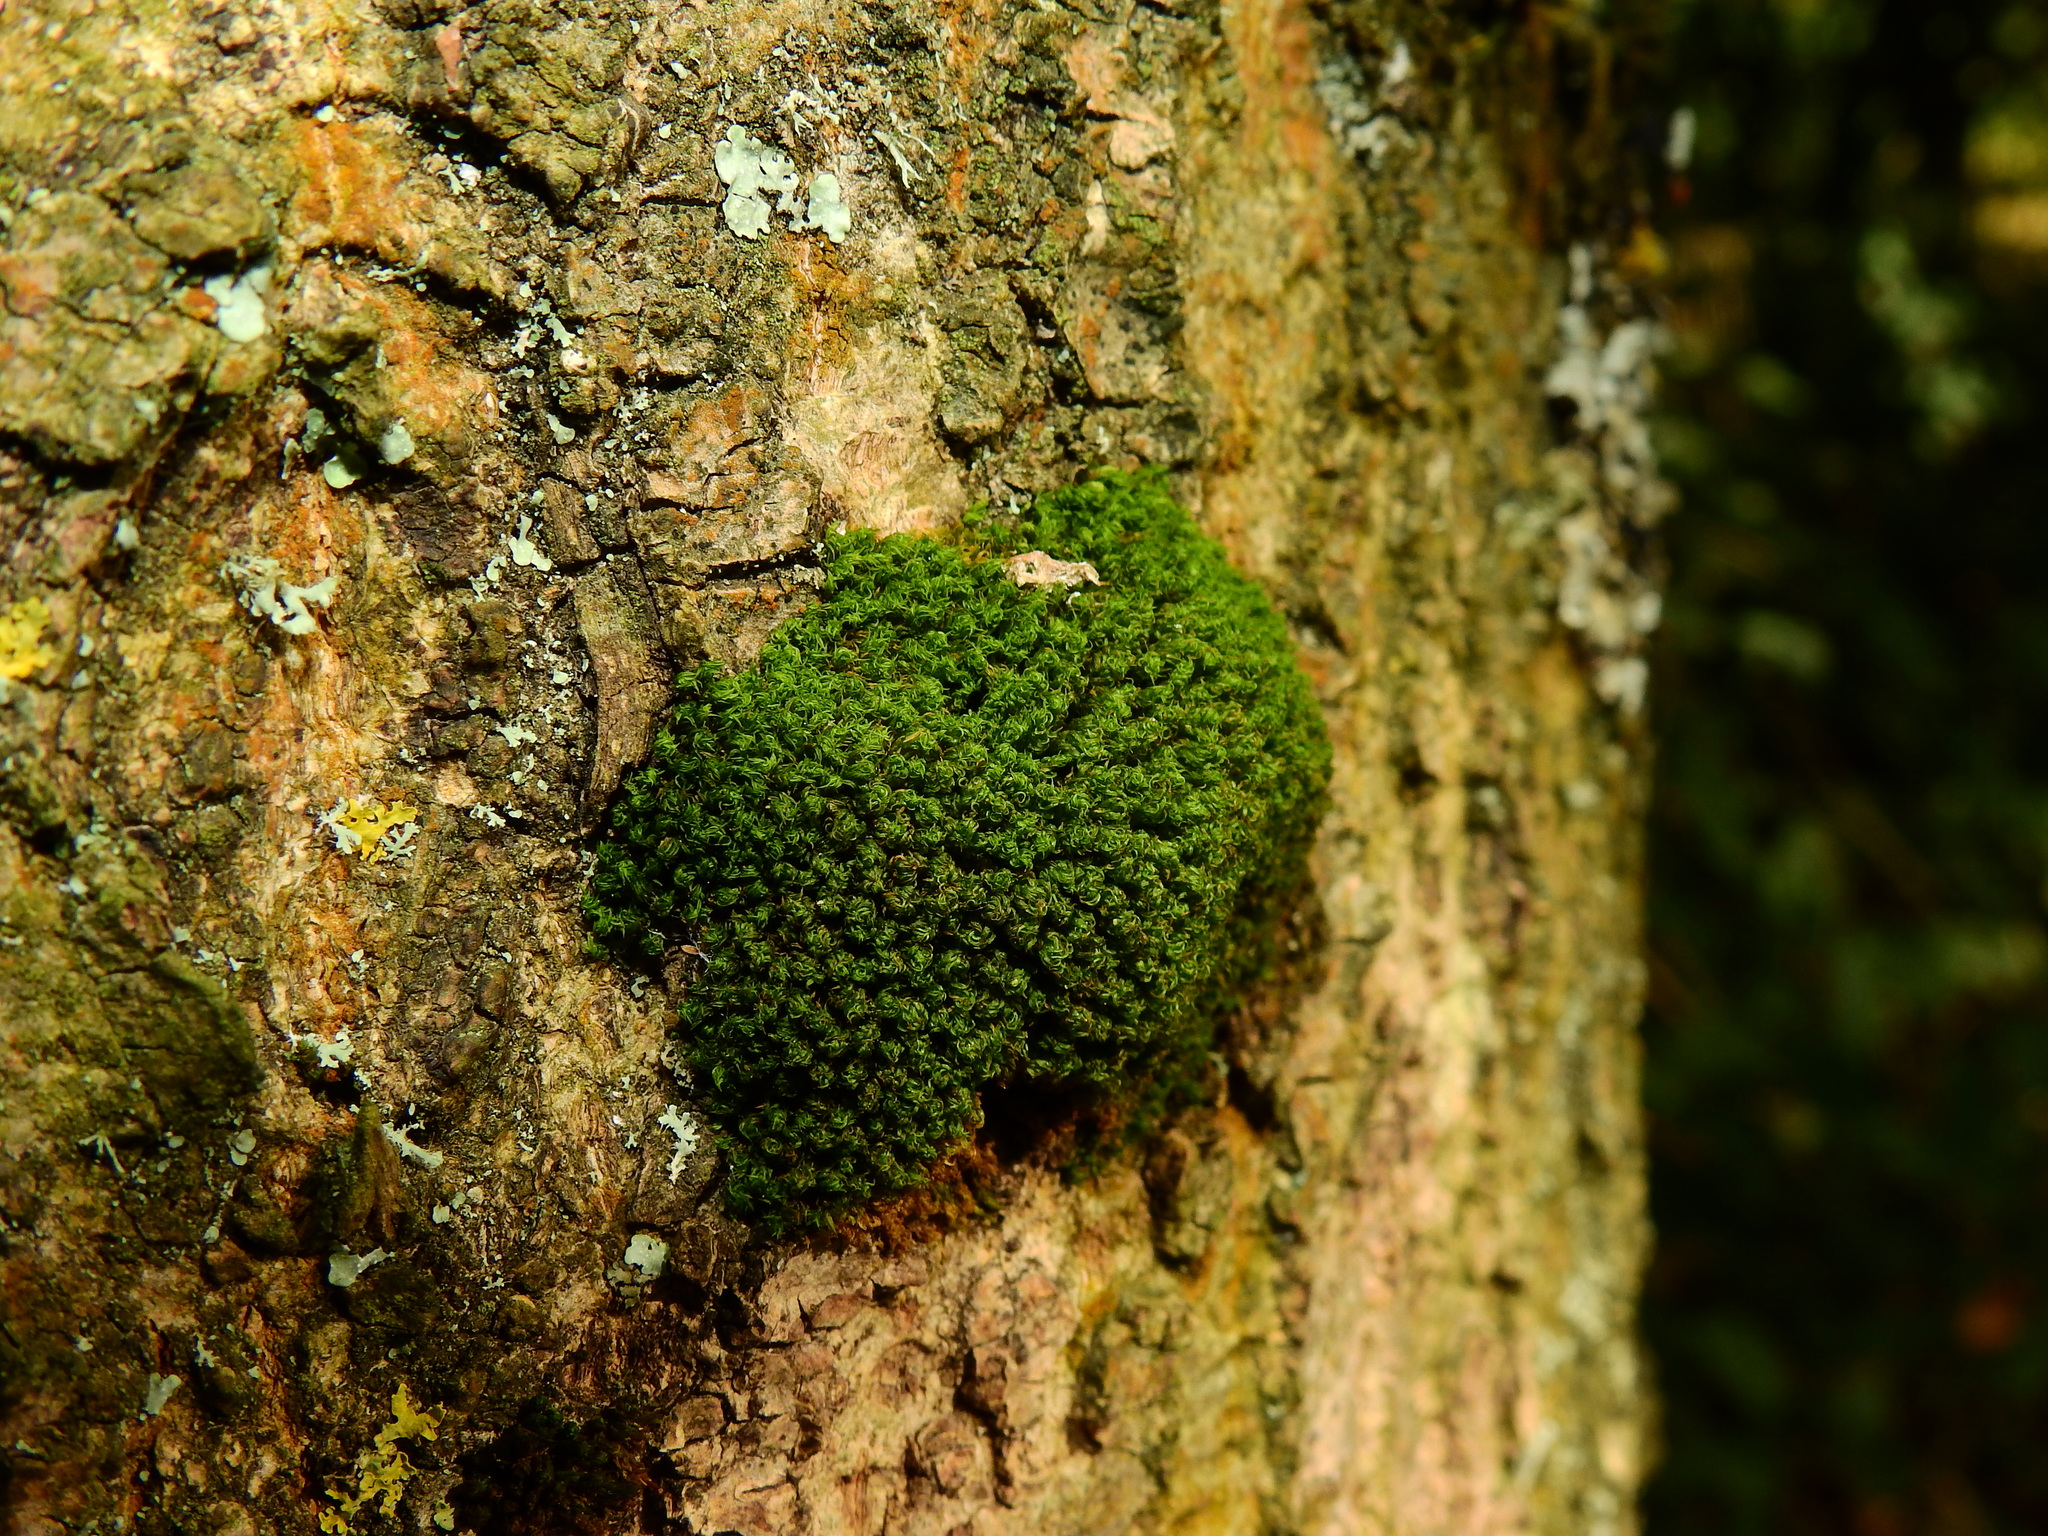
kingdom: Plantae
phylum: Bryophyta
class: Bryopsida
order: Orthotrichales
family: Orthotrichaceae
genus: Plenogemma
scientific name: Plenogemma phyllantha
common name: Frizzled pincushion
